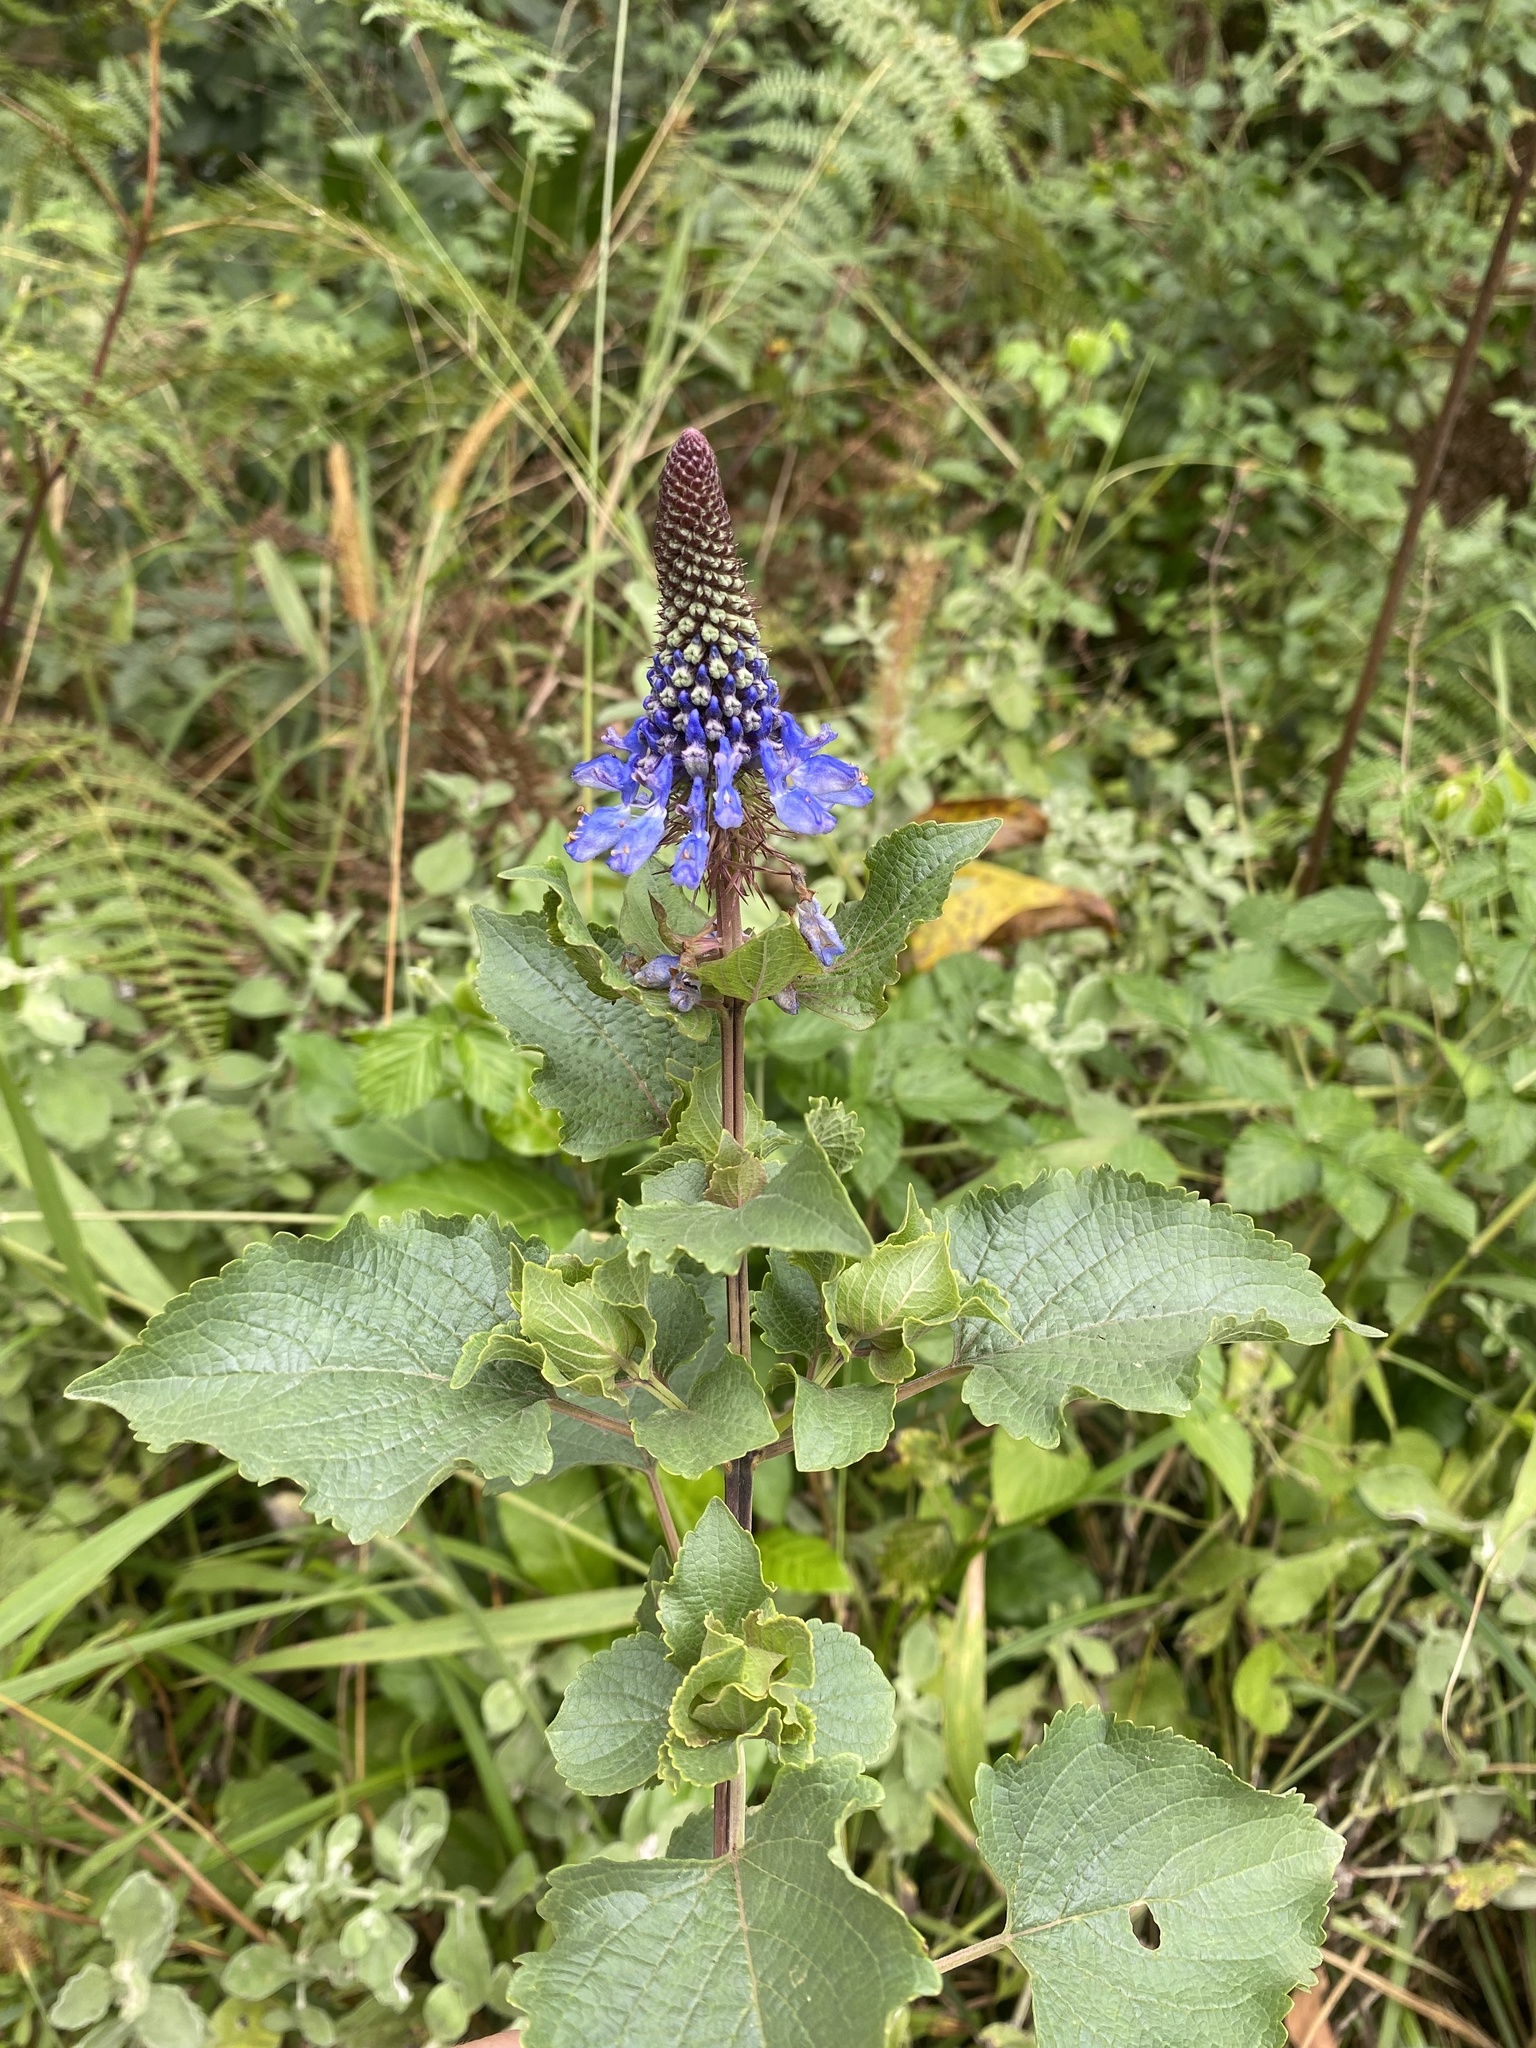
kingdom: Plantae
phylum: Tracheophyta
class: Magnoliopsida
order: Lamiales
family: Lamiaceae
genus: Coleus
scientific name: Coleus livingstonei
